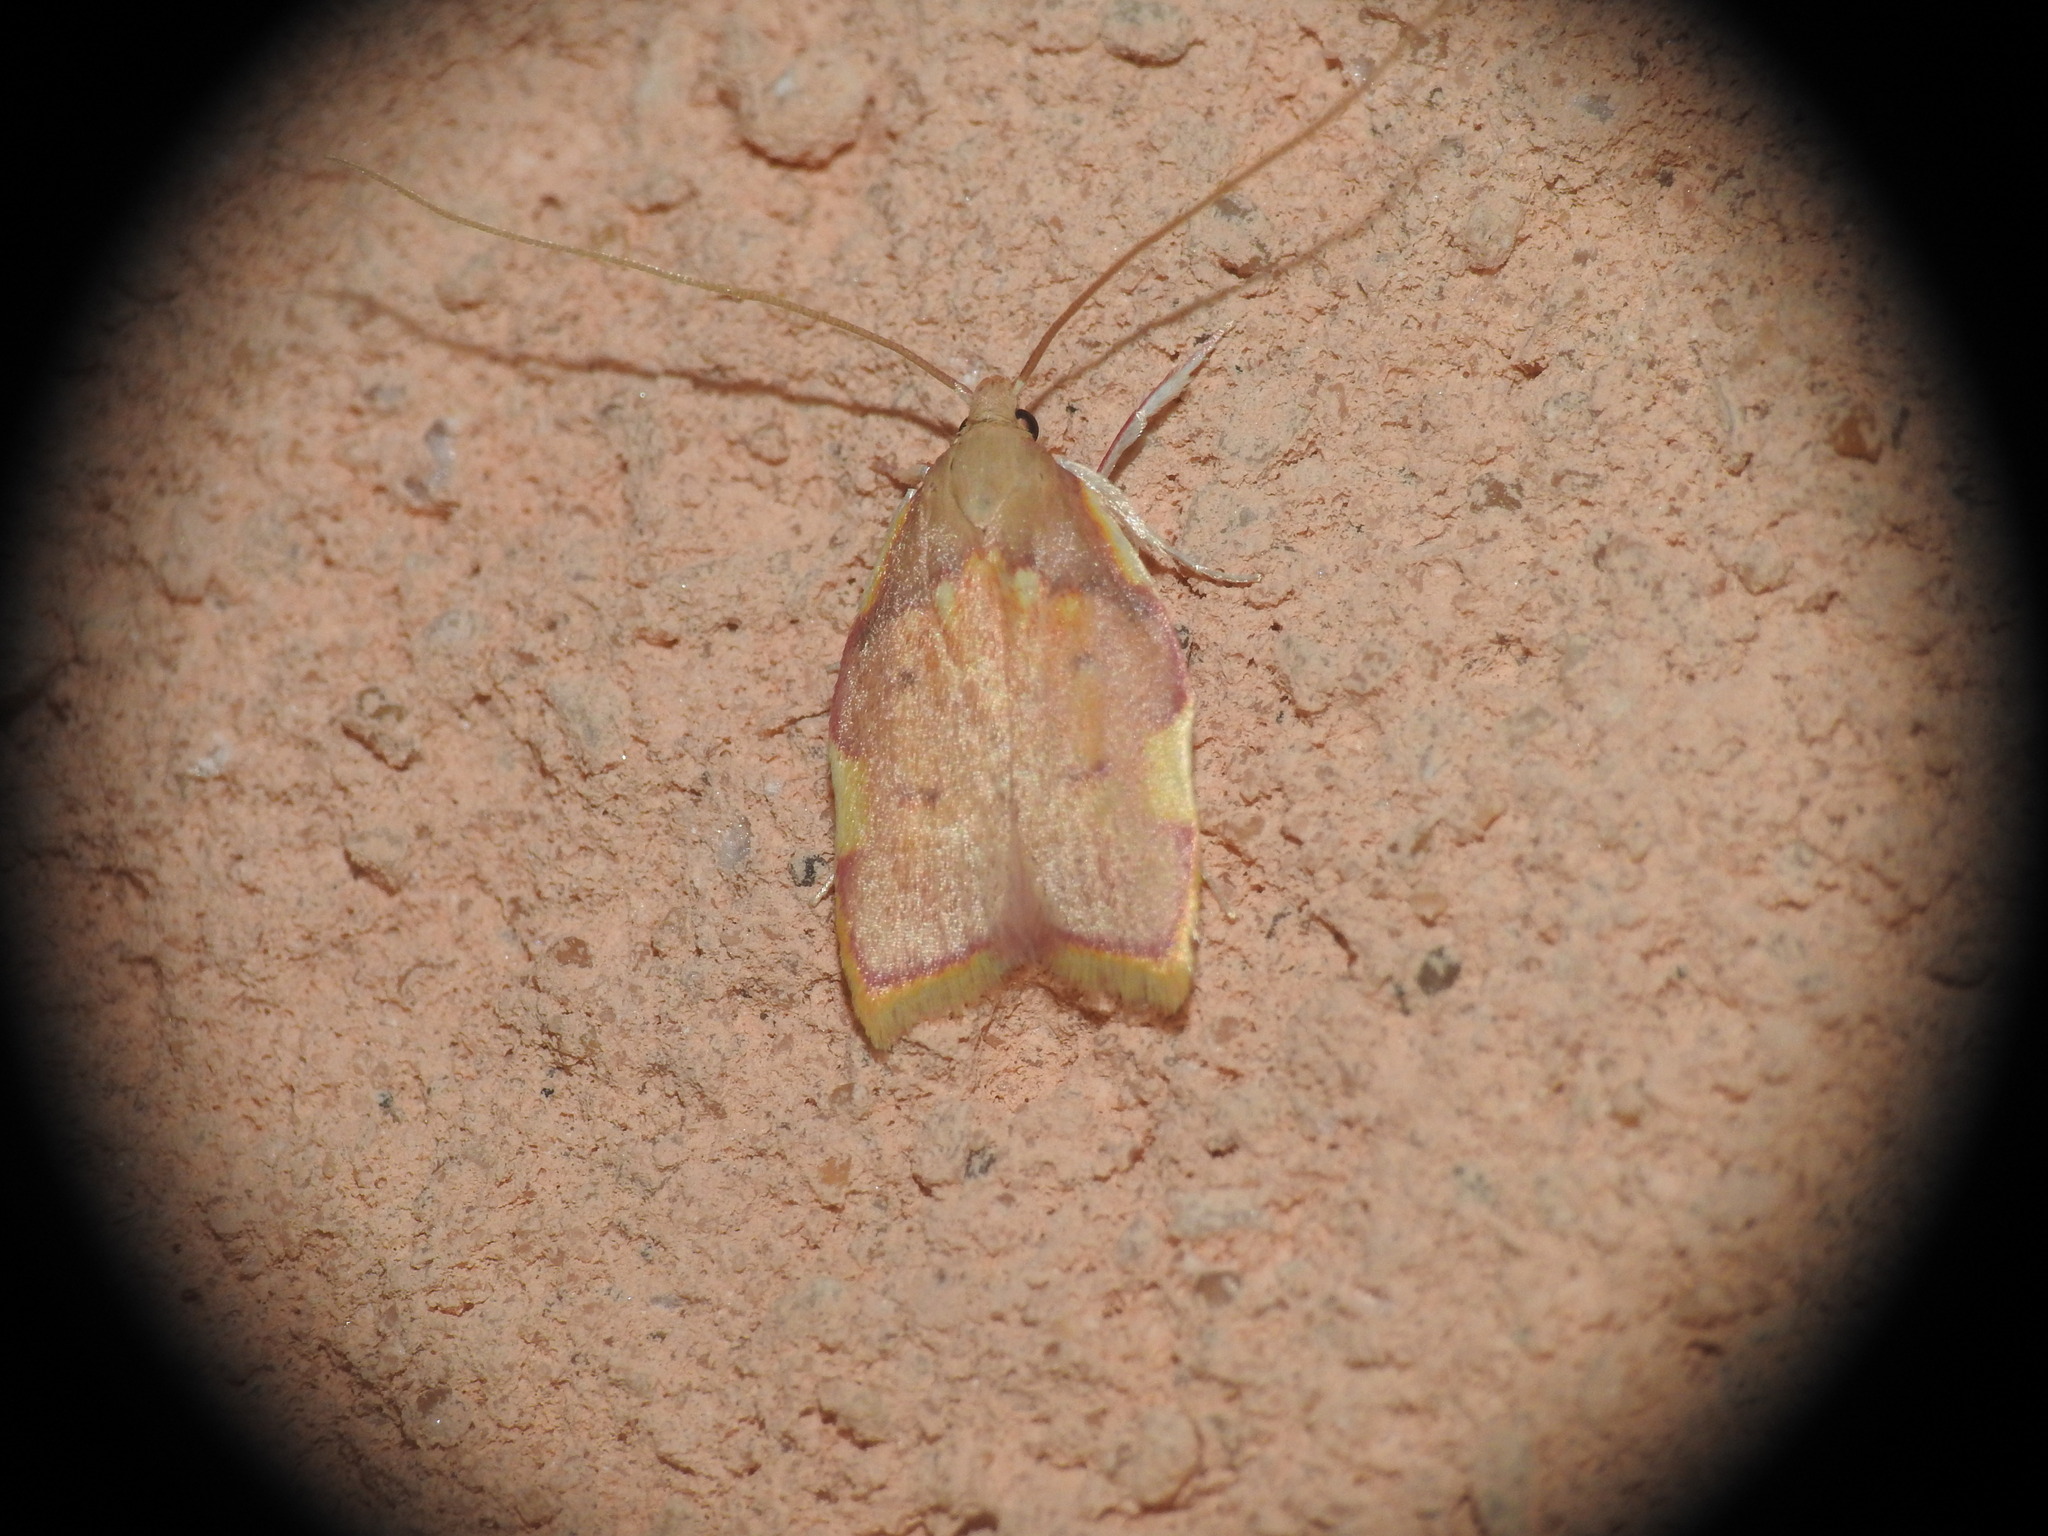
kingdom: Animalia
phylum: Arthropoda
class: Insecta
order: Lepidoptera
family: Peleopodidae
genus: Carcina
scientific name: Carcina quercana
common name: Moth
